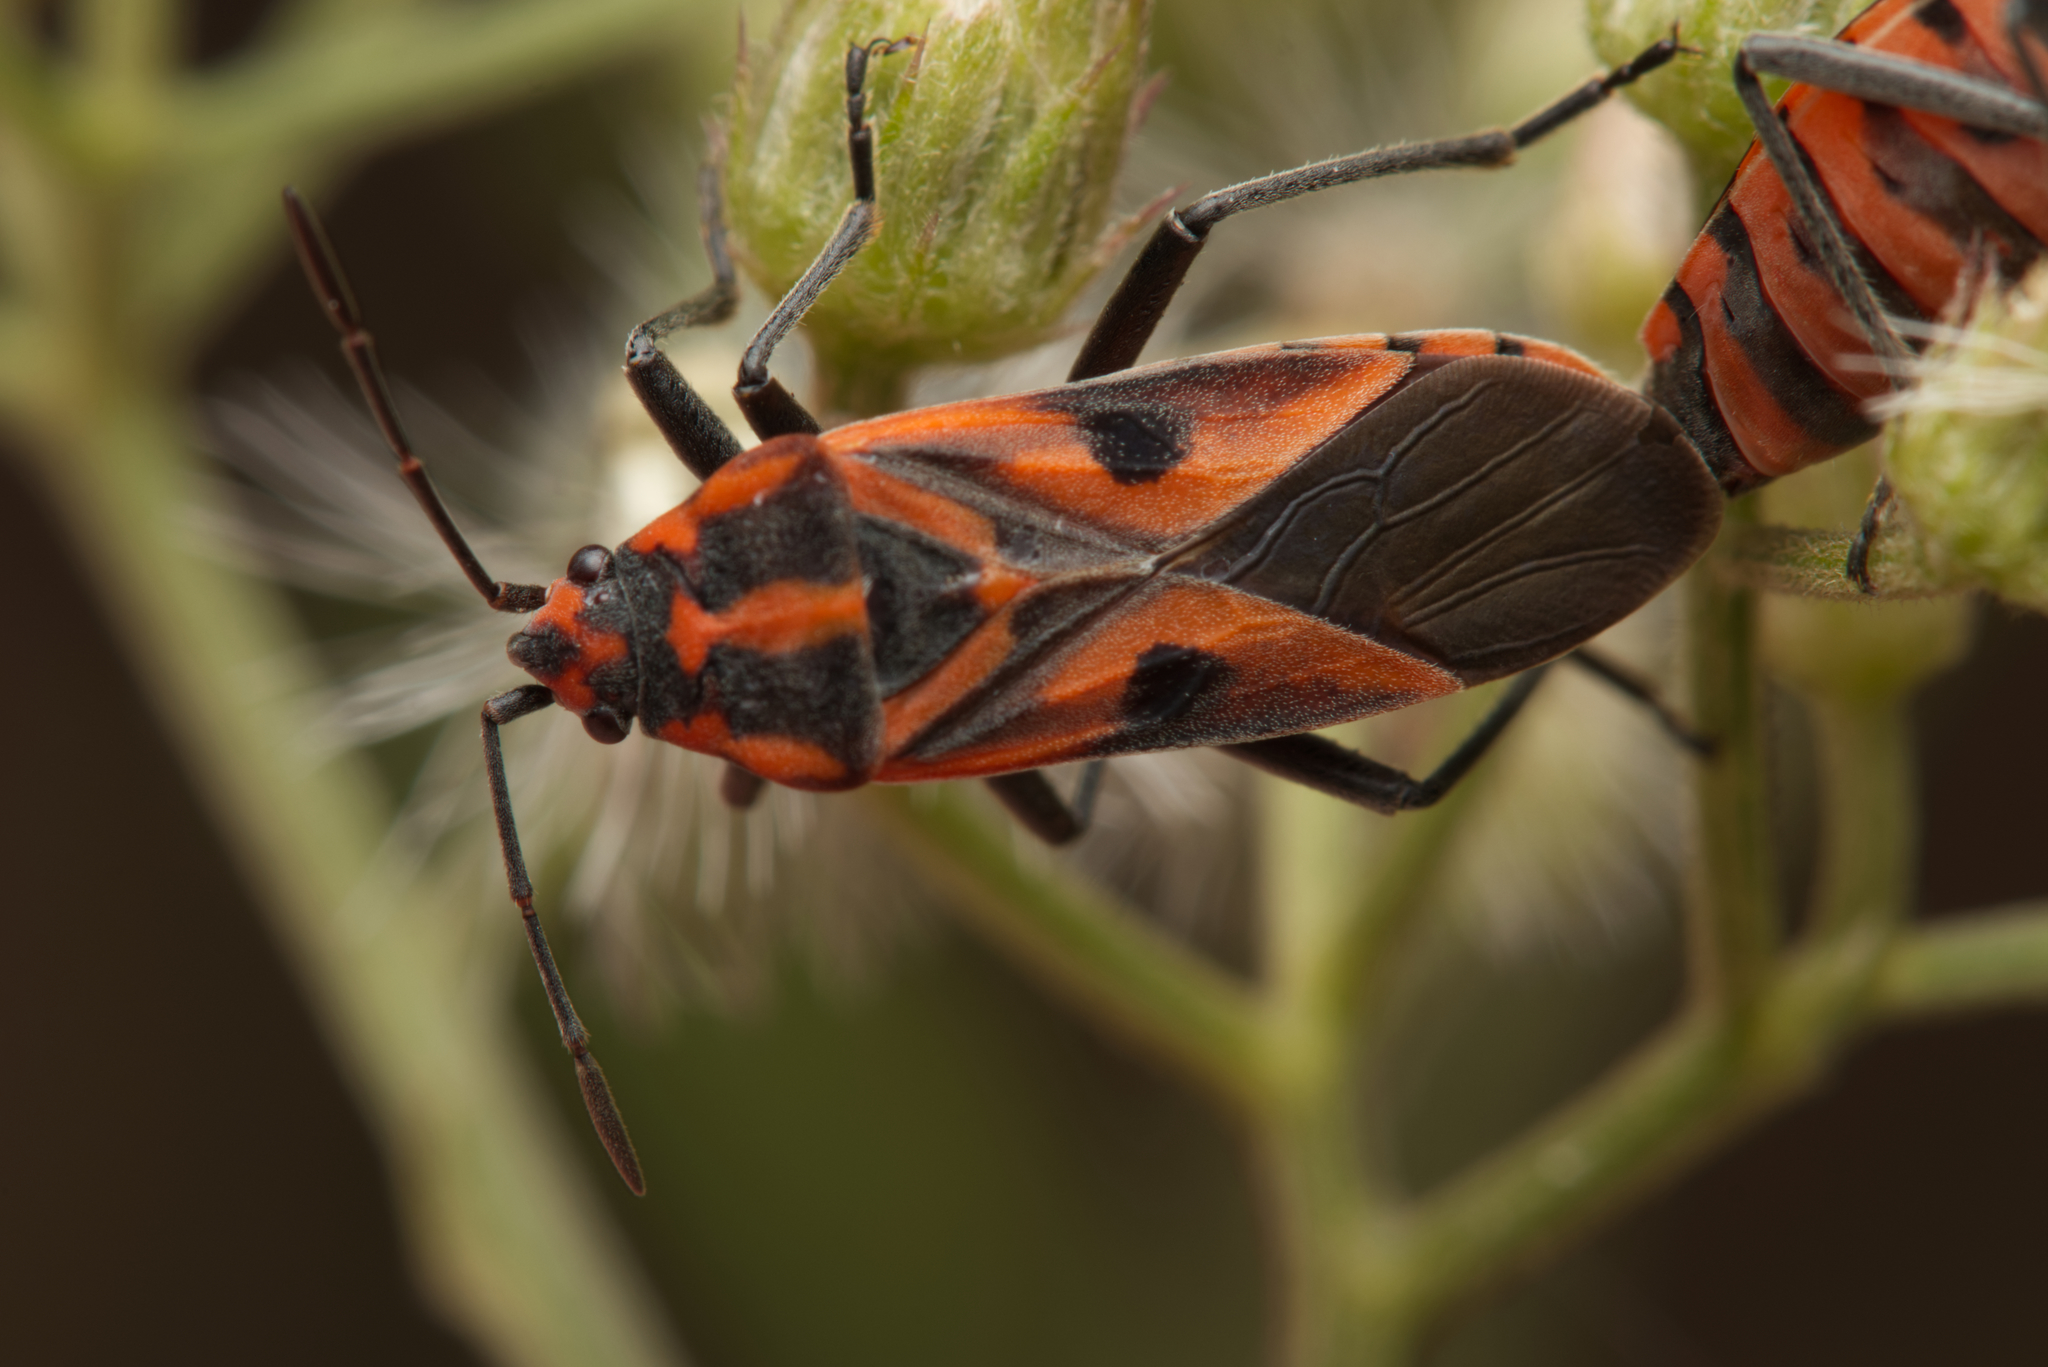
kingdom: Animalia
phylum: Arthropoda
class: Insecta
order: Hemiptera
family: Lygaeidae
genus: Spilostethus
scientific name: Spilostethus hospes
